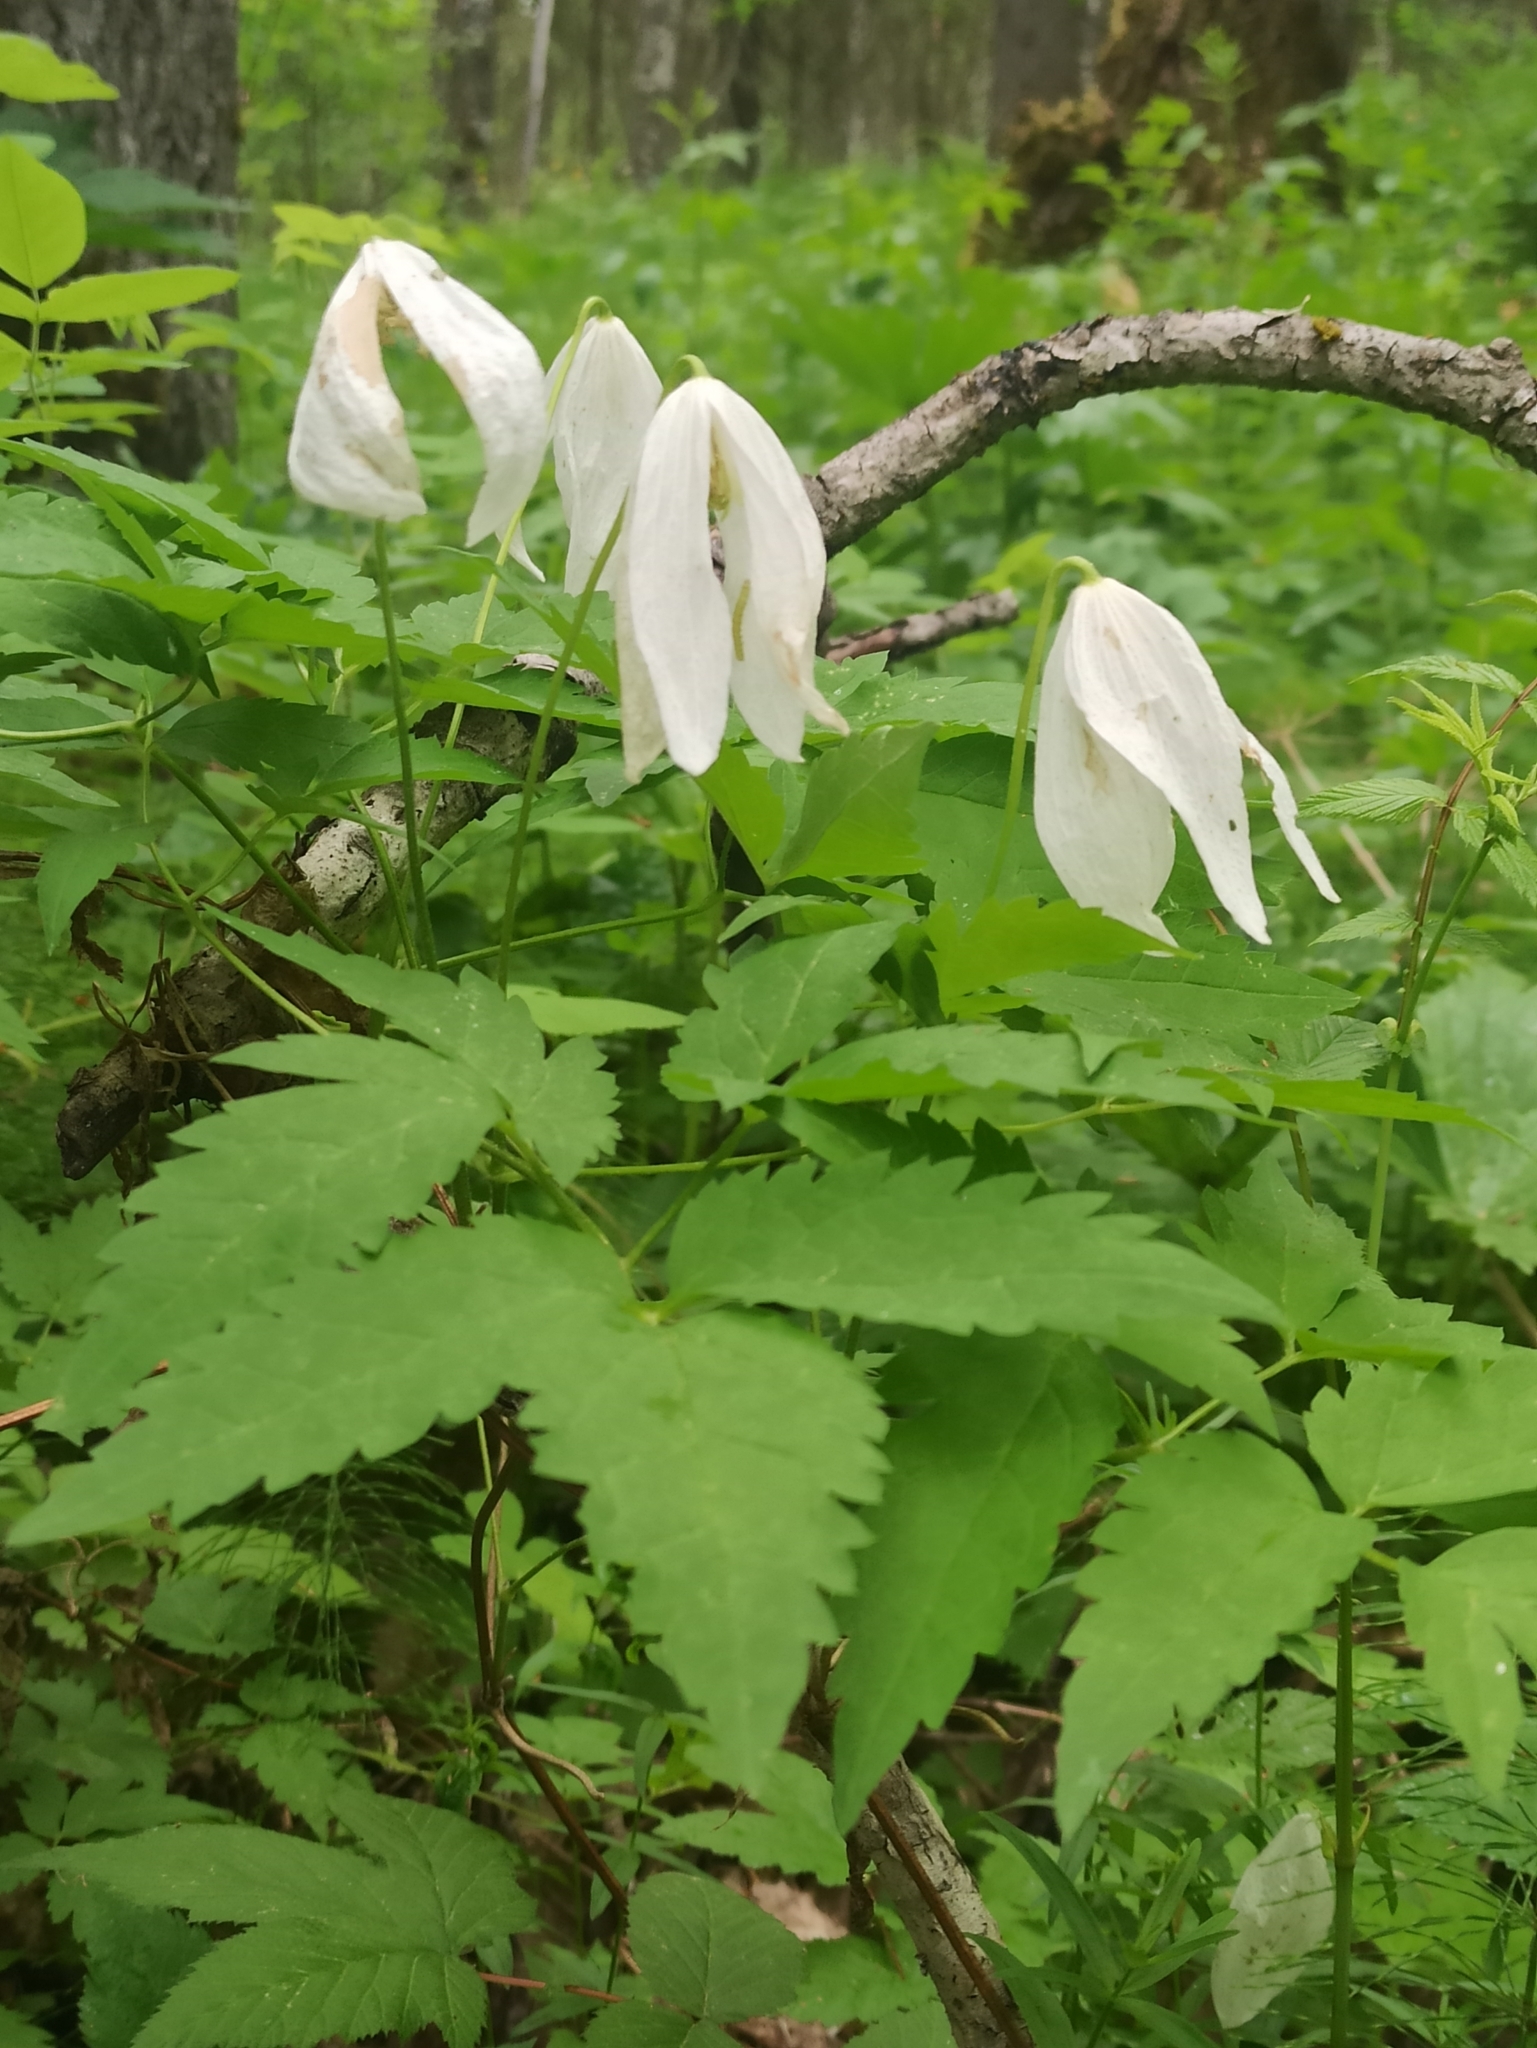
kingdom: Plantae
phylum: Tracheophyta
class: Magnoliopsida
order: Ranunculales
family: Ranunculaceae
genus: Clematis
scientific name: Clematis sibirica
